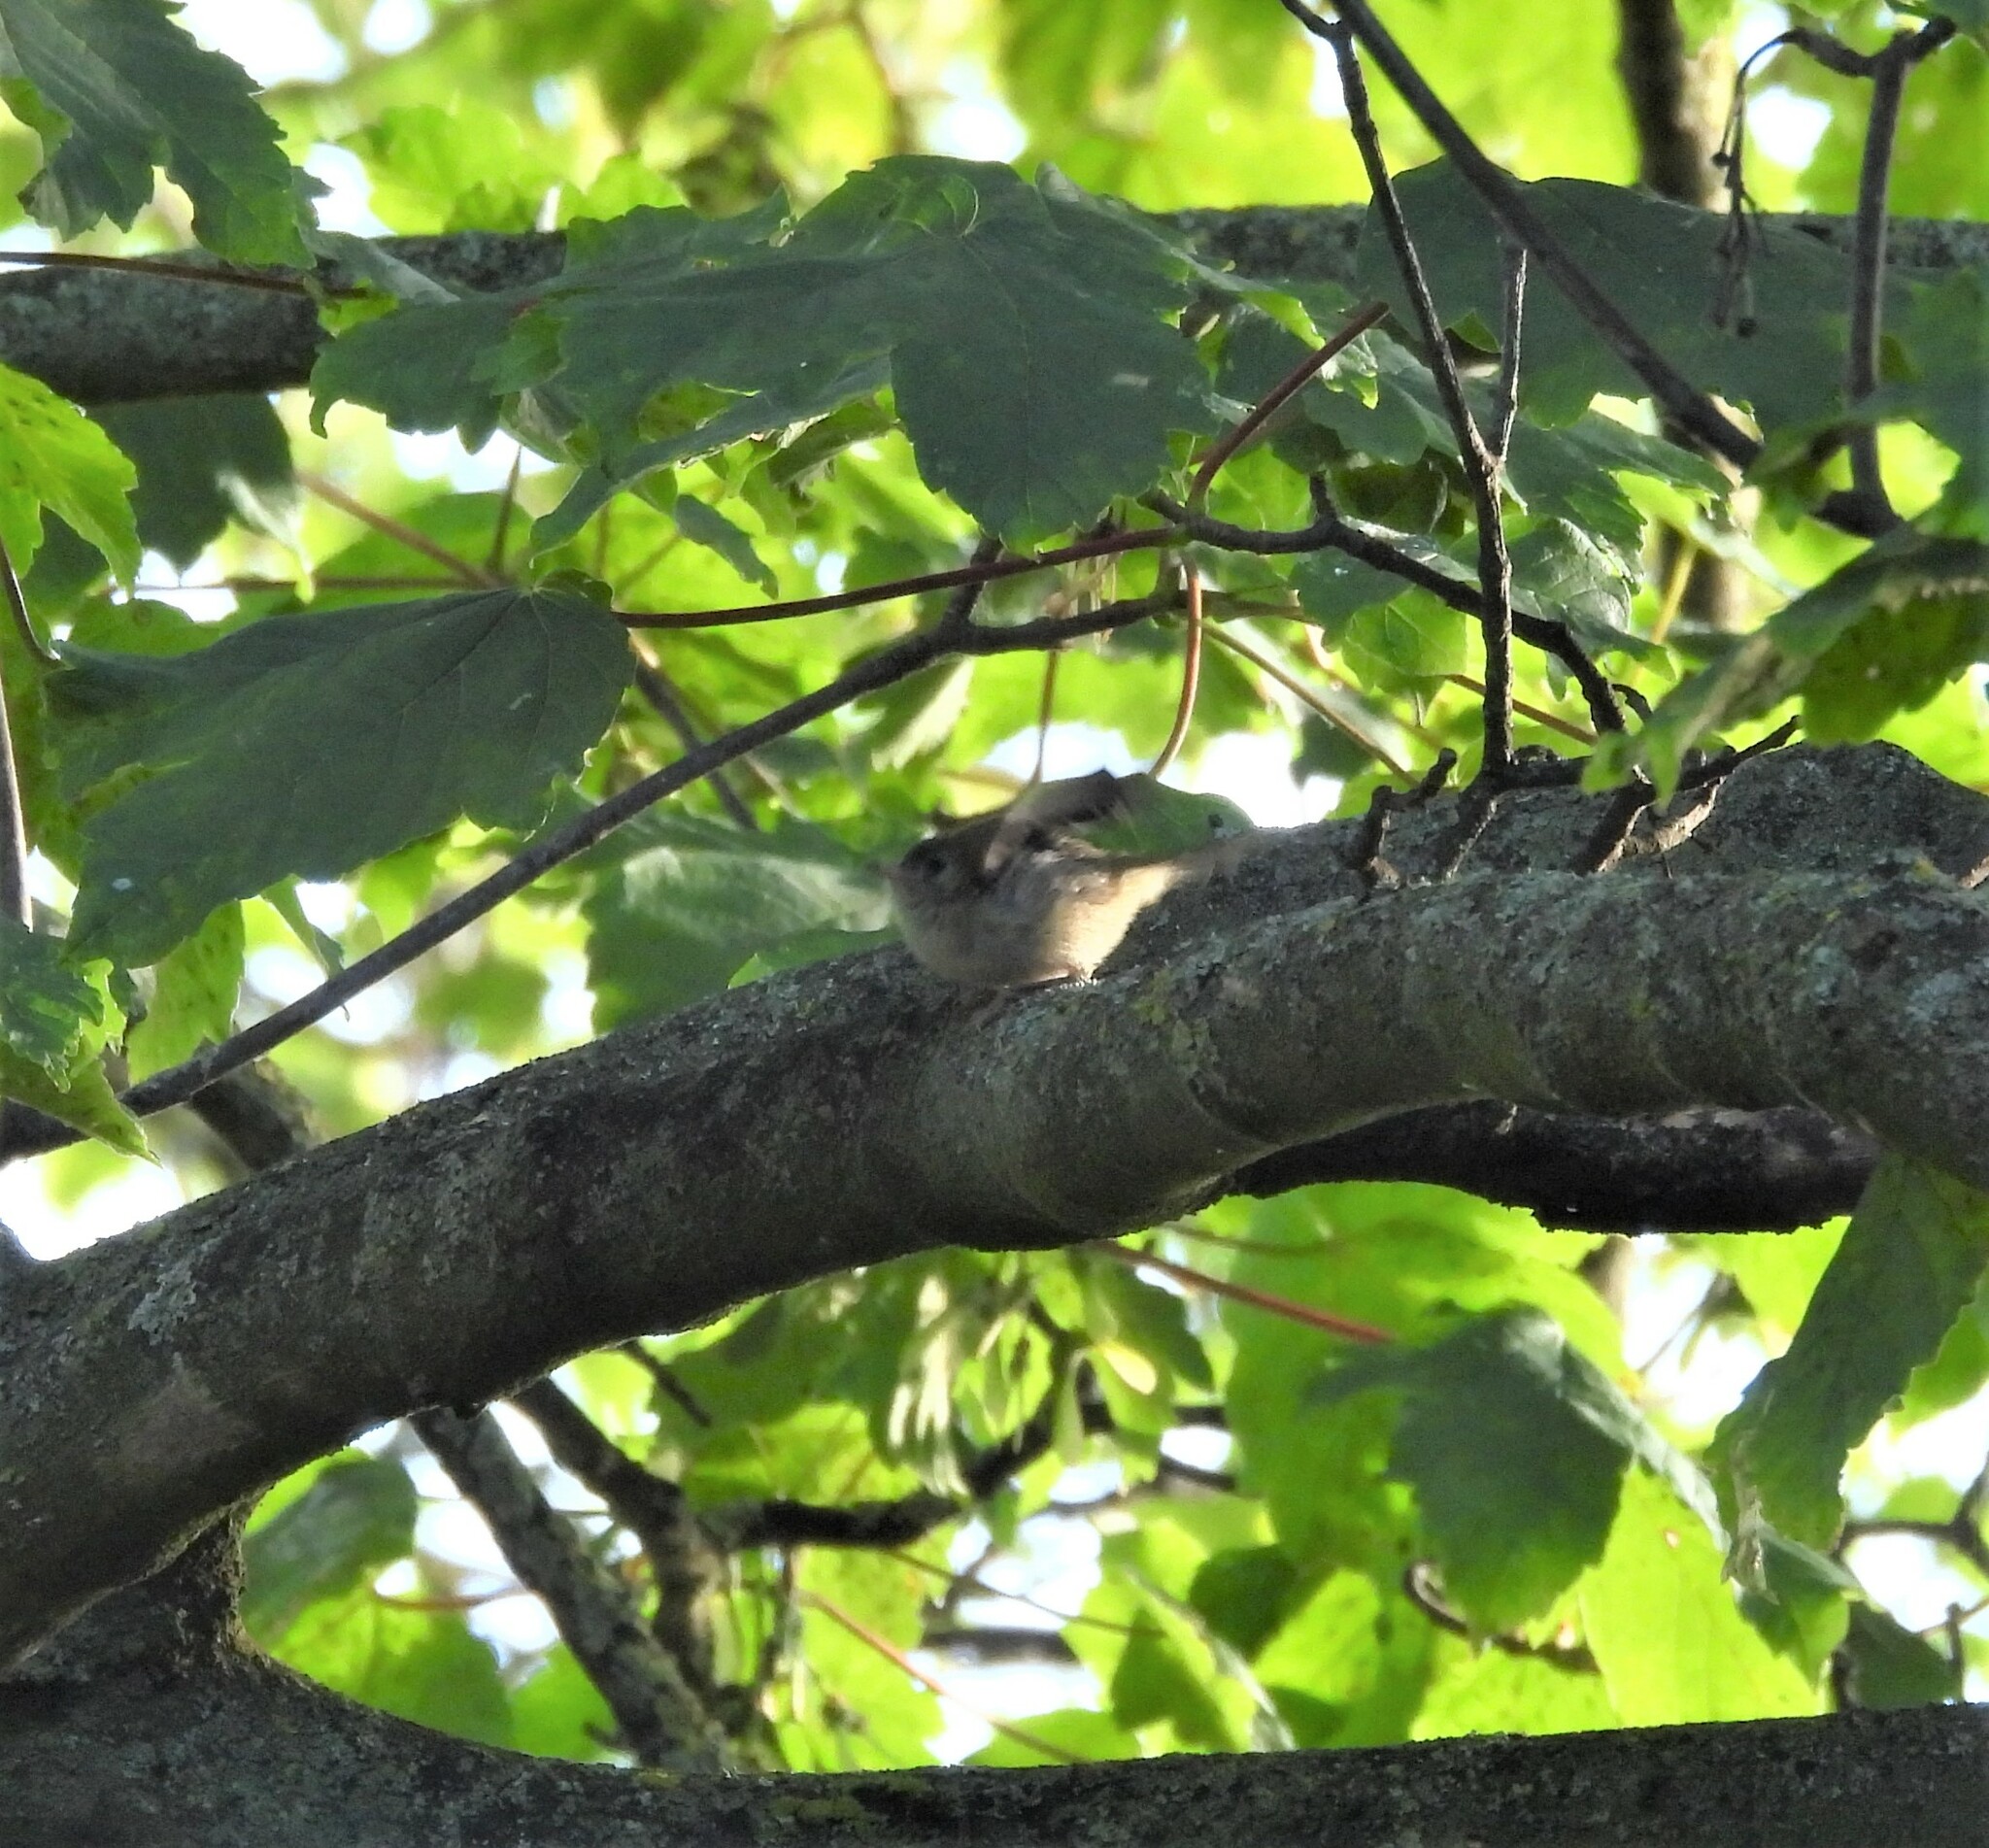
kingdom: Animalia
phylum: Chordata
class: Aves
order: Passeriformes
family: Regulidae
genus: Regulus
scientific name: Regulus regulus
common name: Goldcrest
